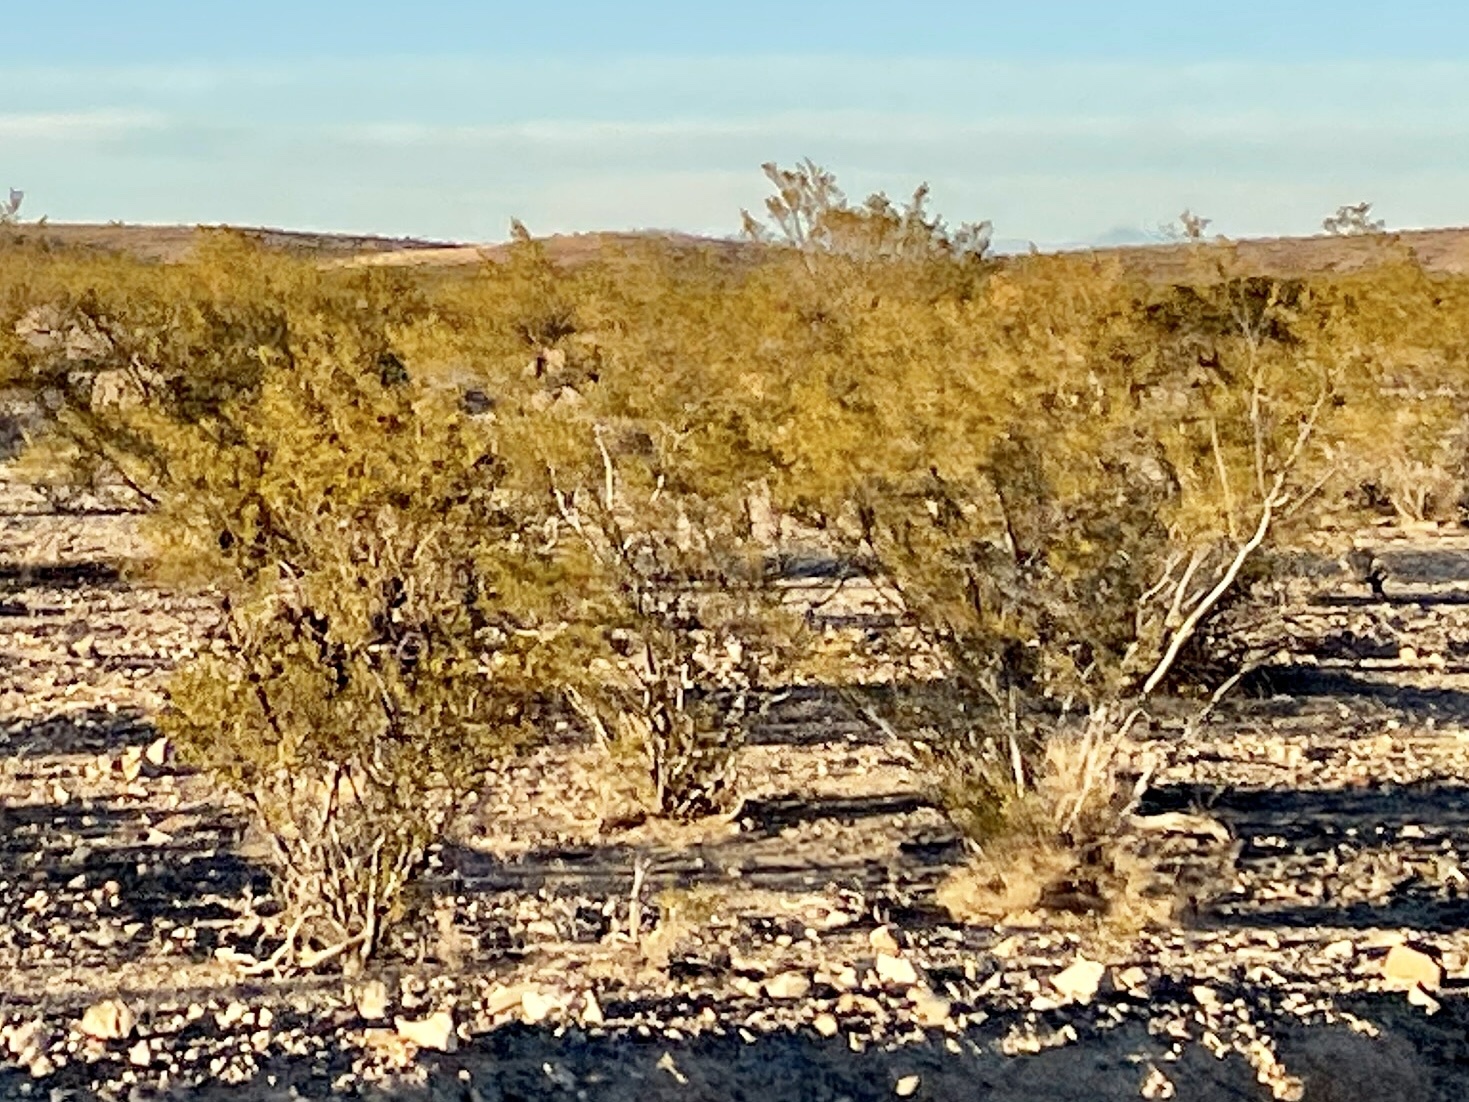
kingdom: Plantae
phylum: Tracheophyta
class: Magnoliopsida
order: Zygophyllales
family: Zygophyllaceae
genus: Larrea
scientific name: Larrea tridentata
